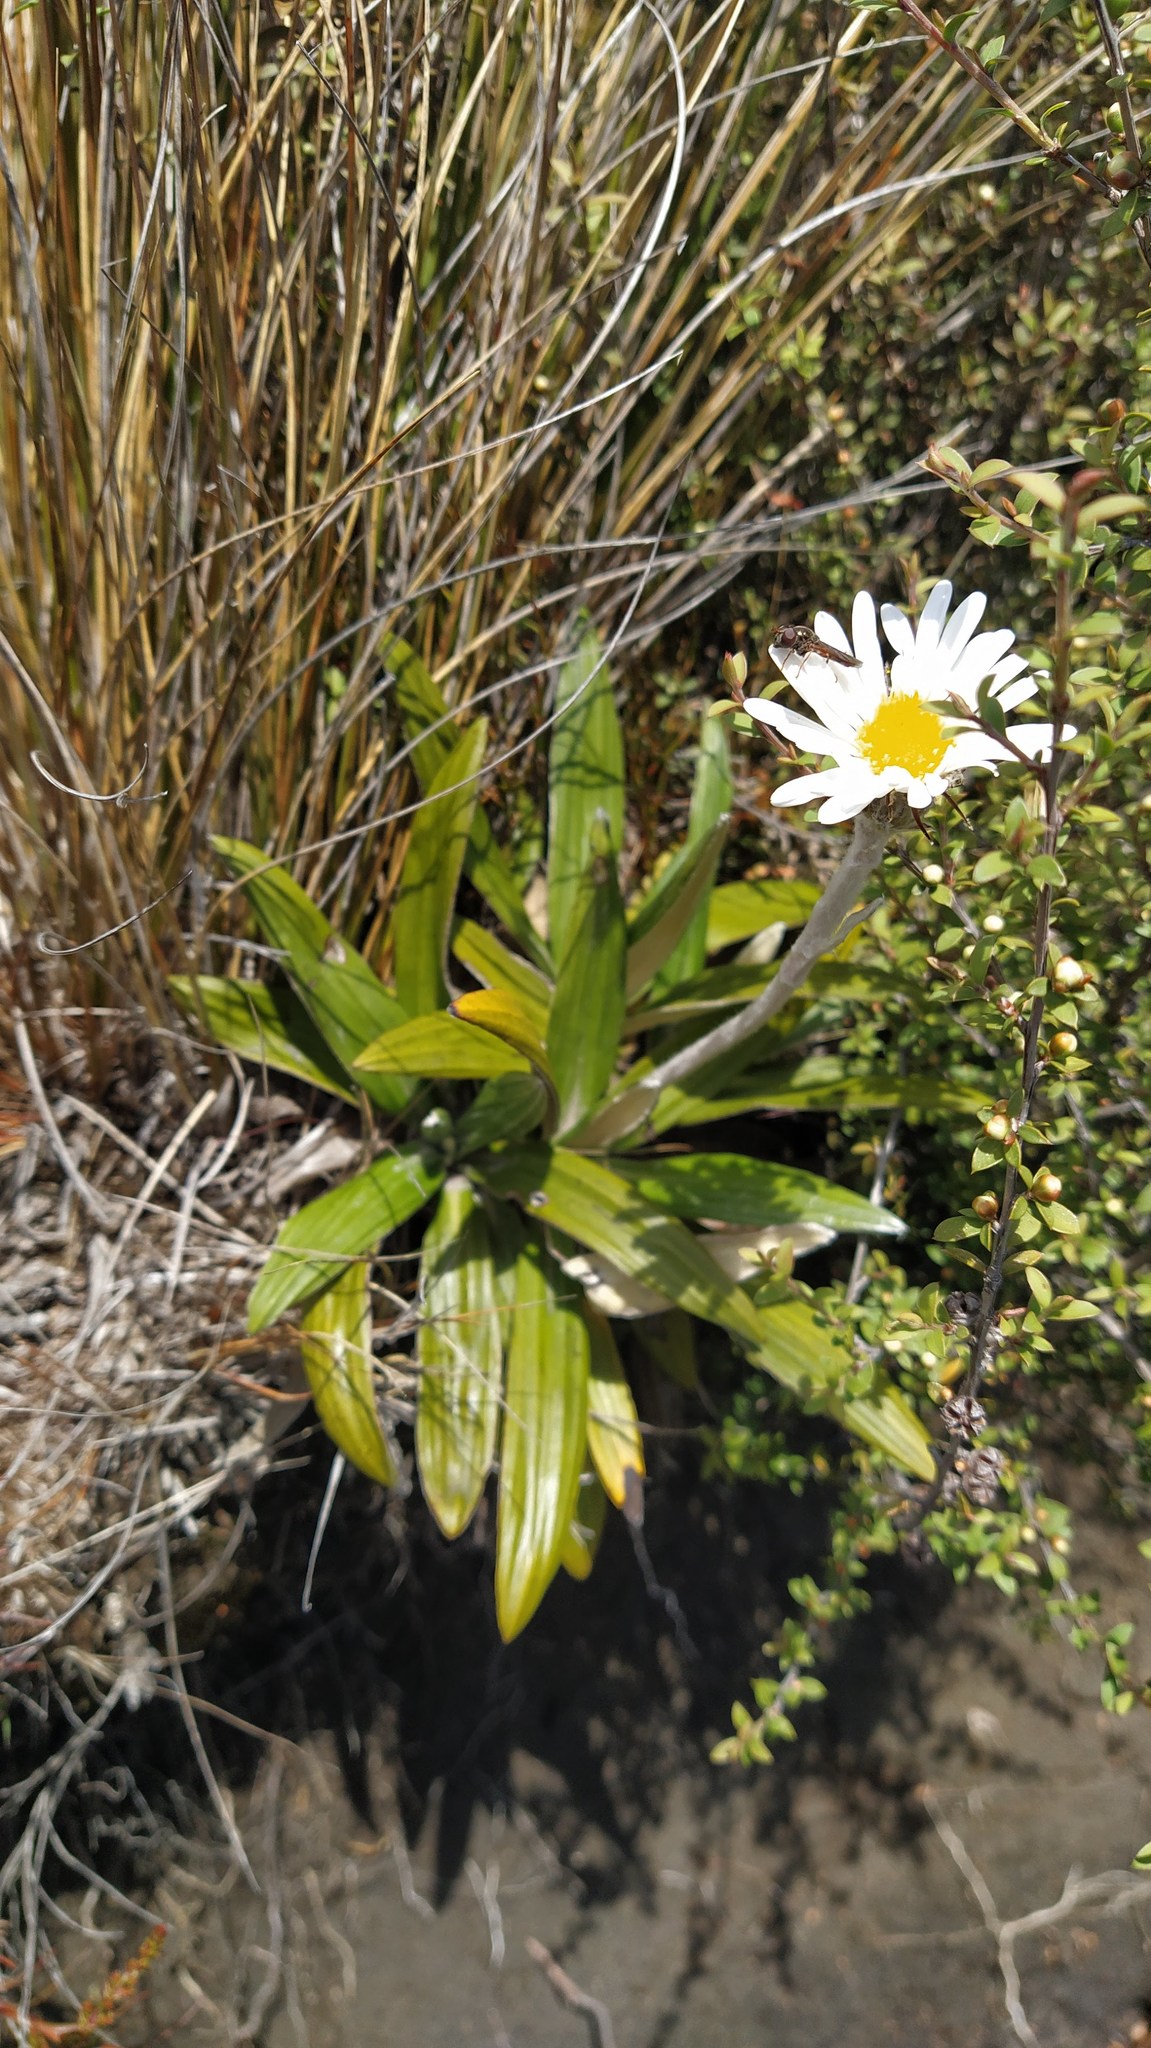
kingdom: Plantae
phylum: Tracheophyta
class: Magnoliopsida
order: Asterales
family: Asteraceae
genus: Celmisia
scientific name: Celmisia spectabilis
